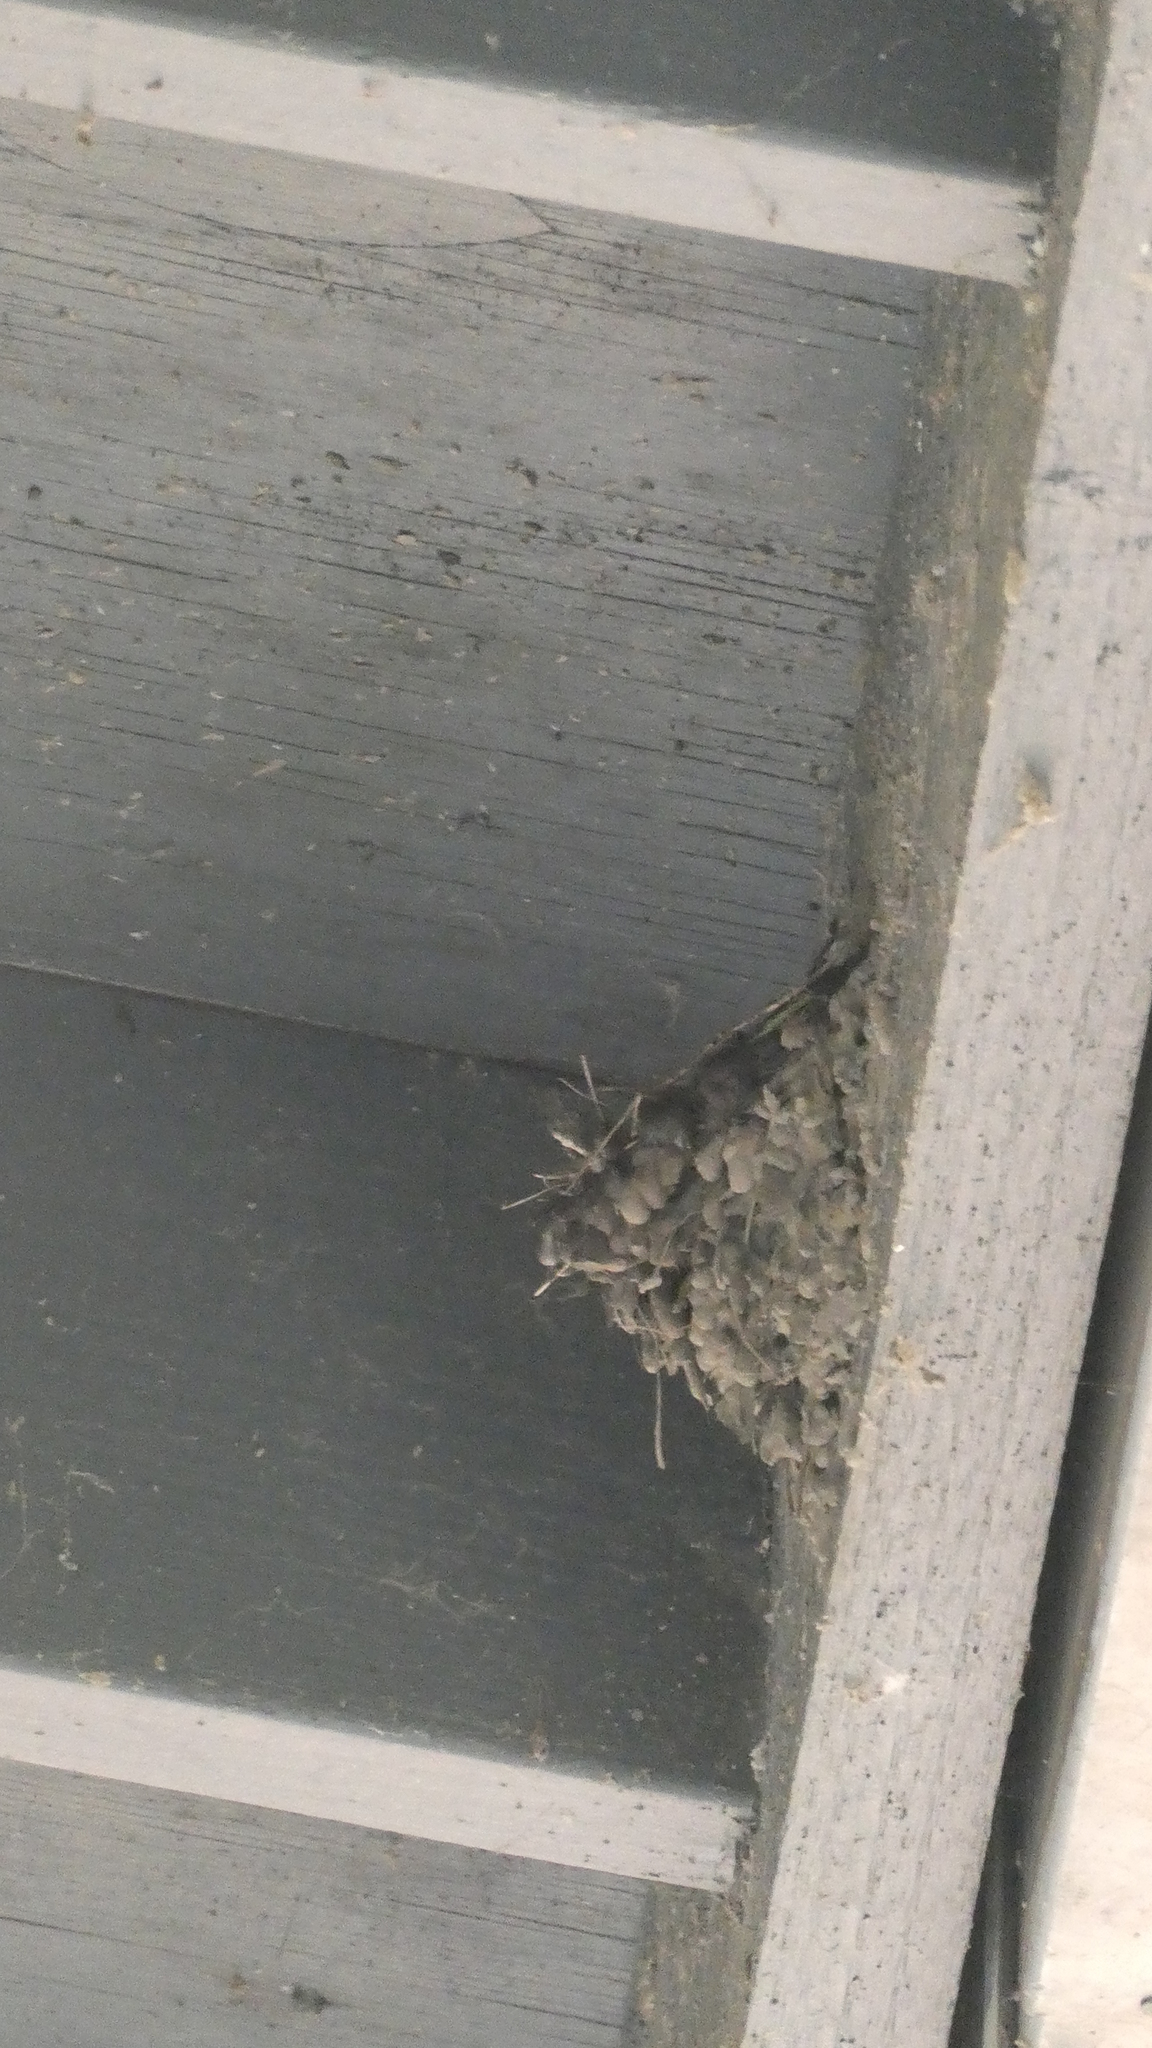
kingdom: Animalia
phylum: Chordata
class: Aves
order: Passeriformes
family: Tyrannidae
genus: Sayornis
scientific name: Sayornis nigricans
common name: Black phoebe
